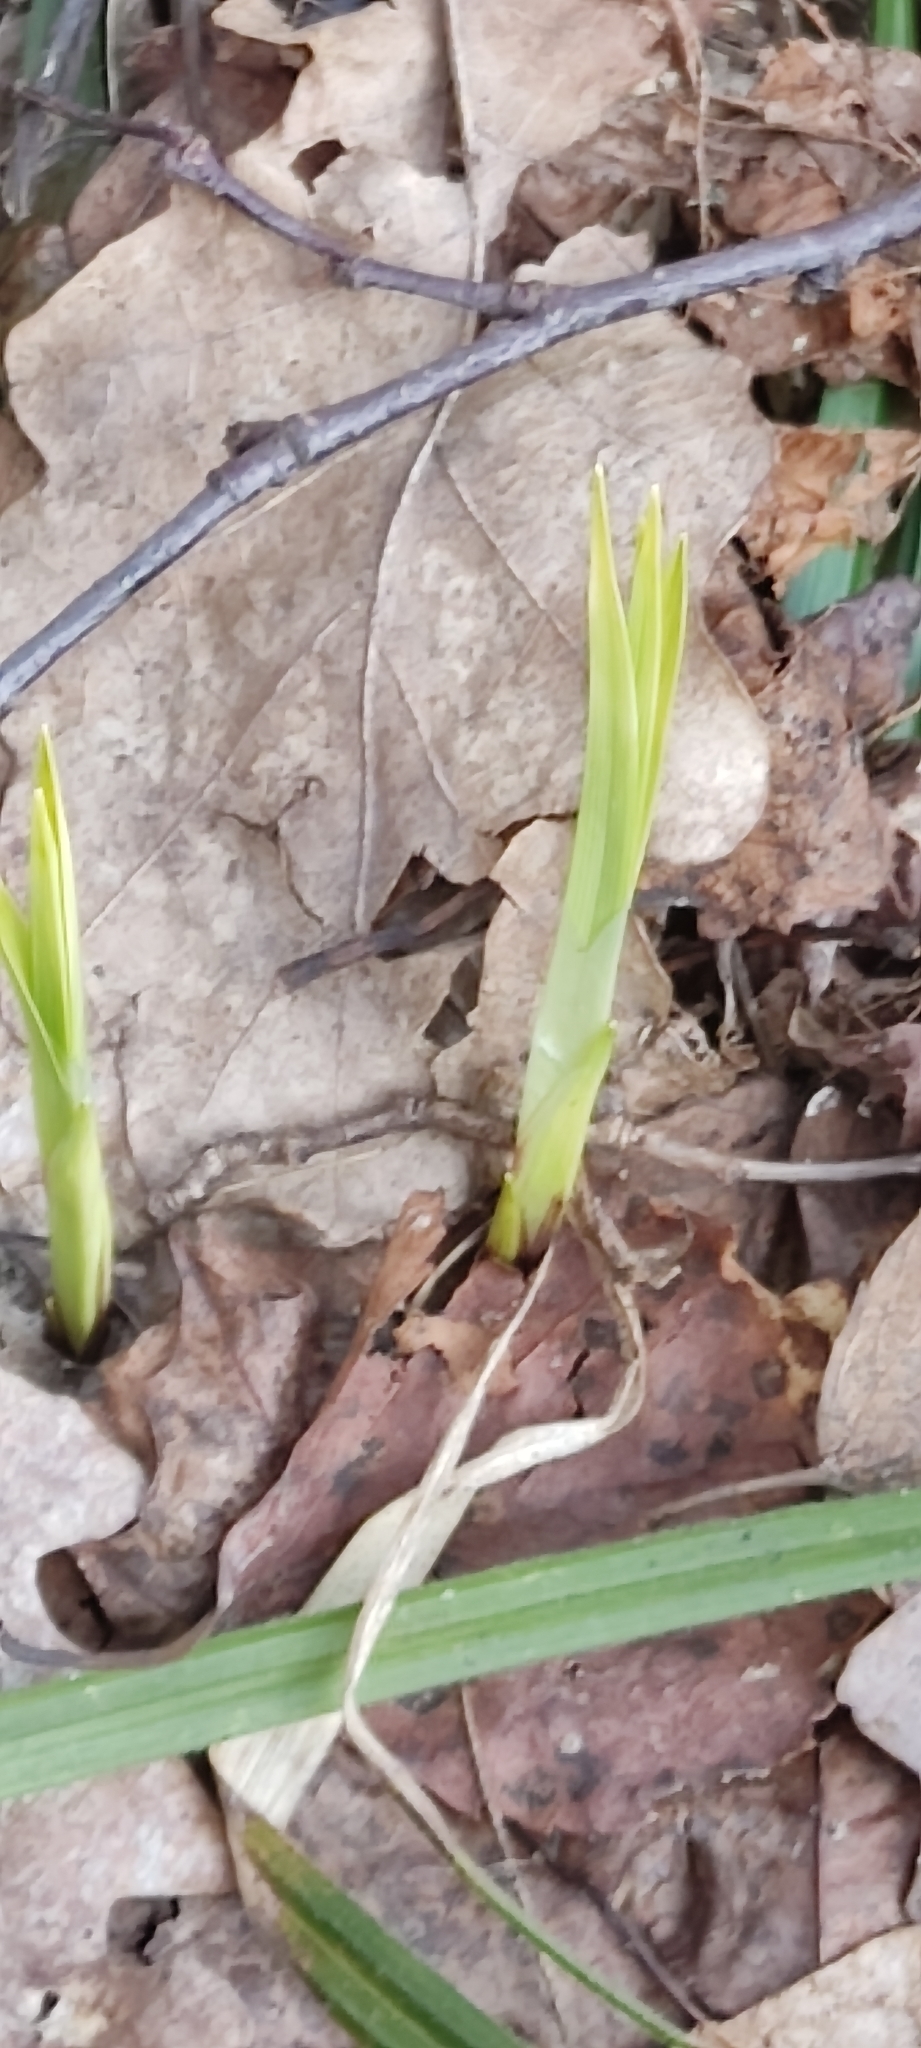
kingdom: Plantae
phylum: Tracheophyta
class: Liliopsida
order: Poales
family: Cyperaceae
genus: Carex
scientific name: Carex pilosa
